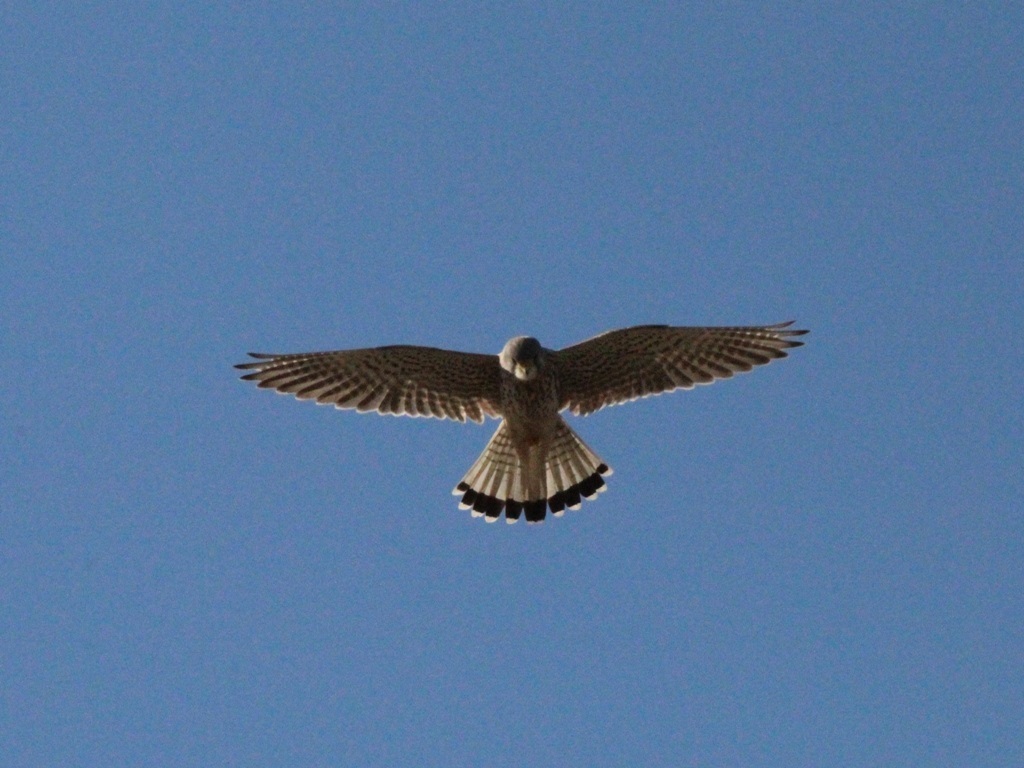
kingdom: Animalia
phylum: Chordata
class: Aves
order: Falconiformes
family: Falconidae
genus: Falco
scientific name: Falco tinnunculus
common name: Common kestrel
